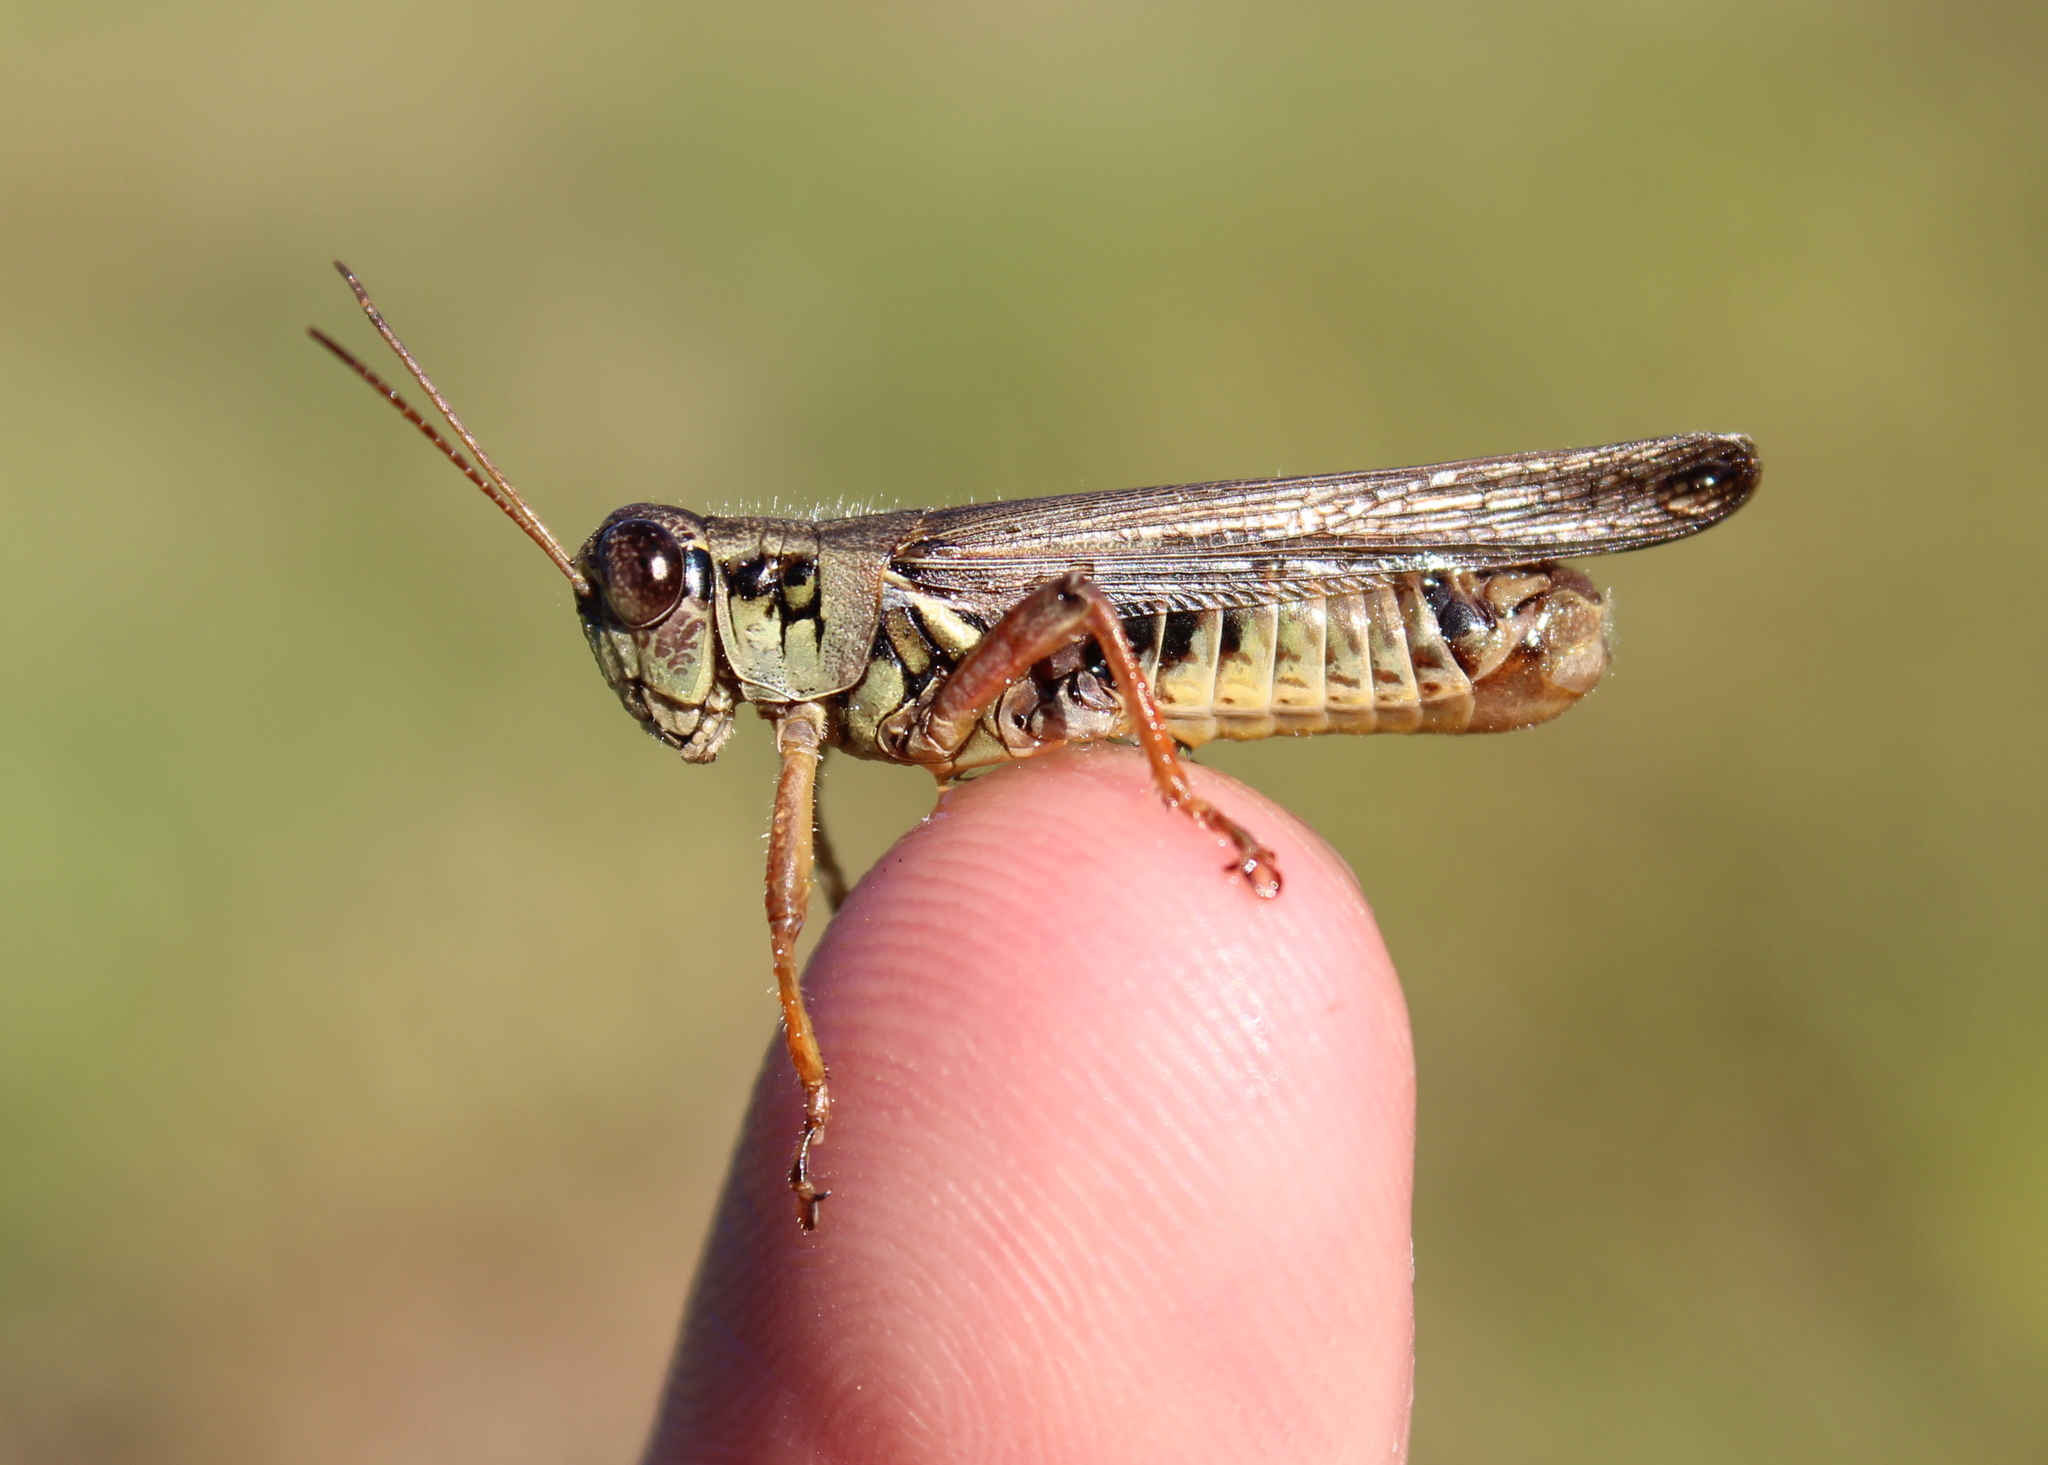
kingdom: Animalia
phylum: Arthropoda
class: Insecta
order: Orthoptera
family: Acrididae
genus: Melanoplus
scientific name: Melanoplus femurrubrum
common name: Red-legged grasshopper
